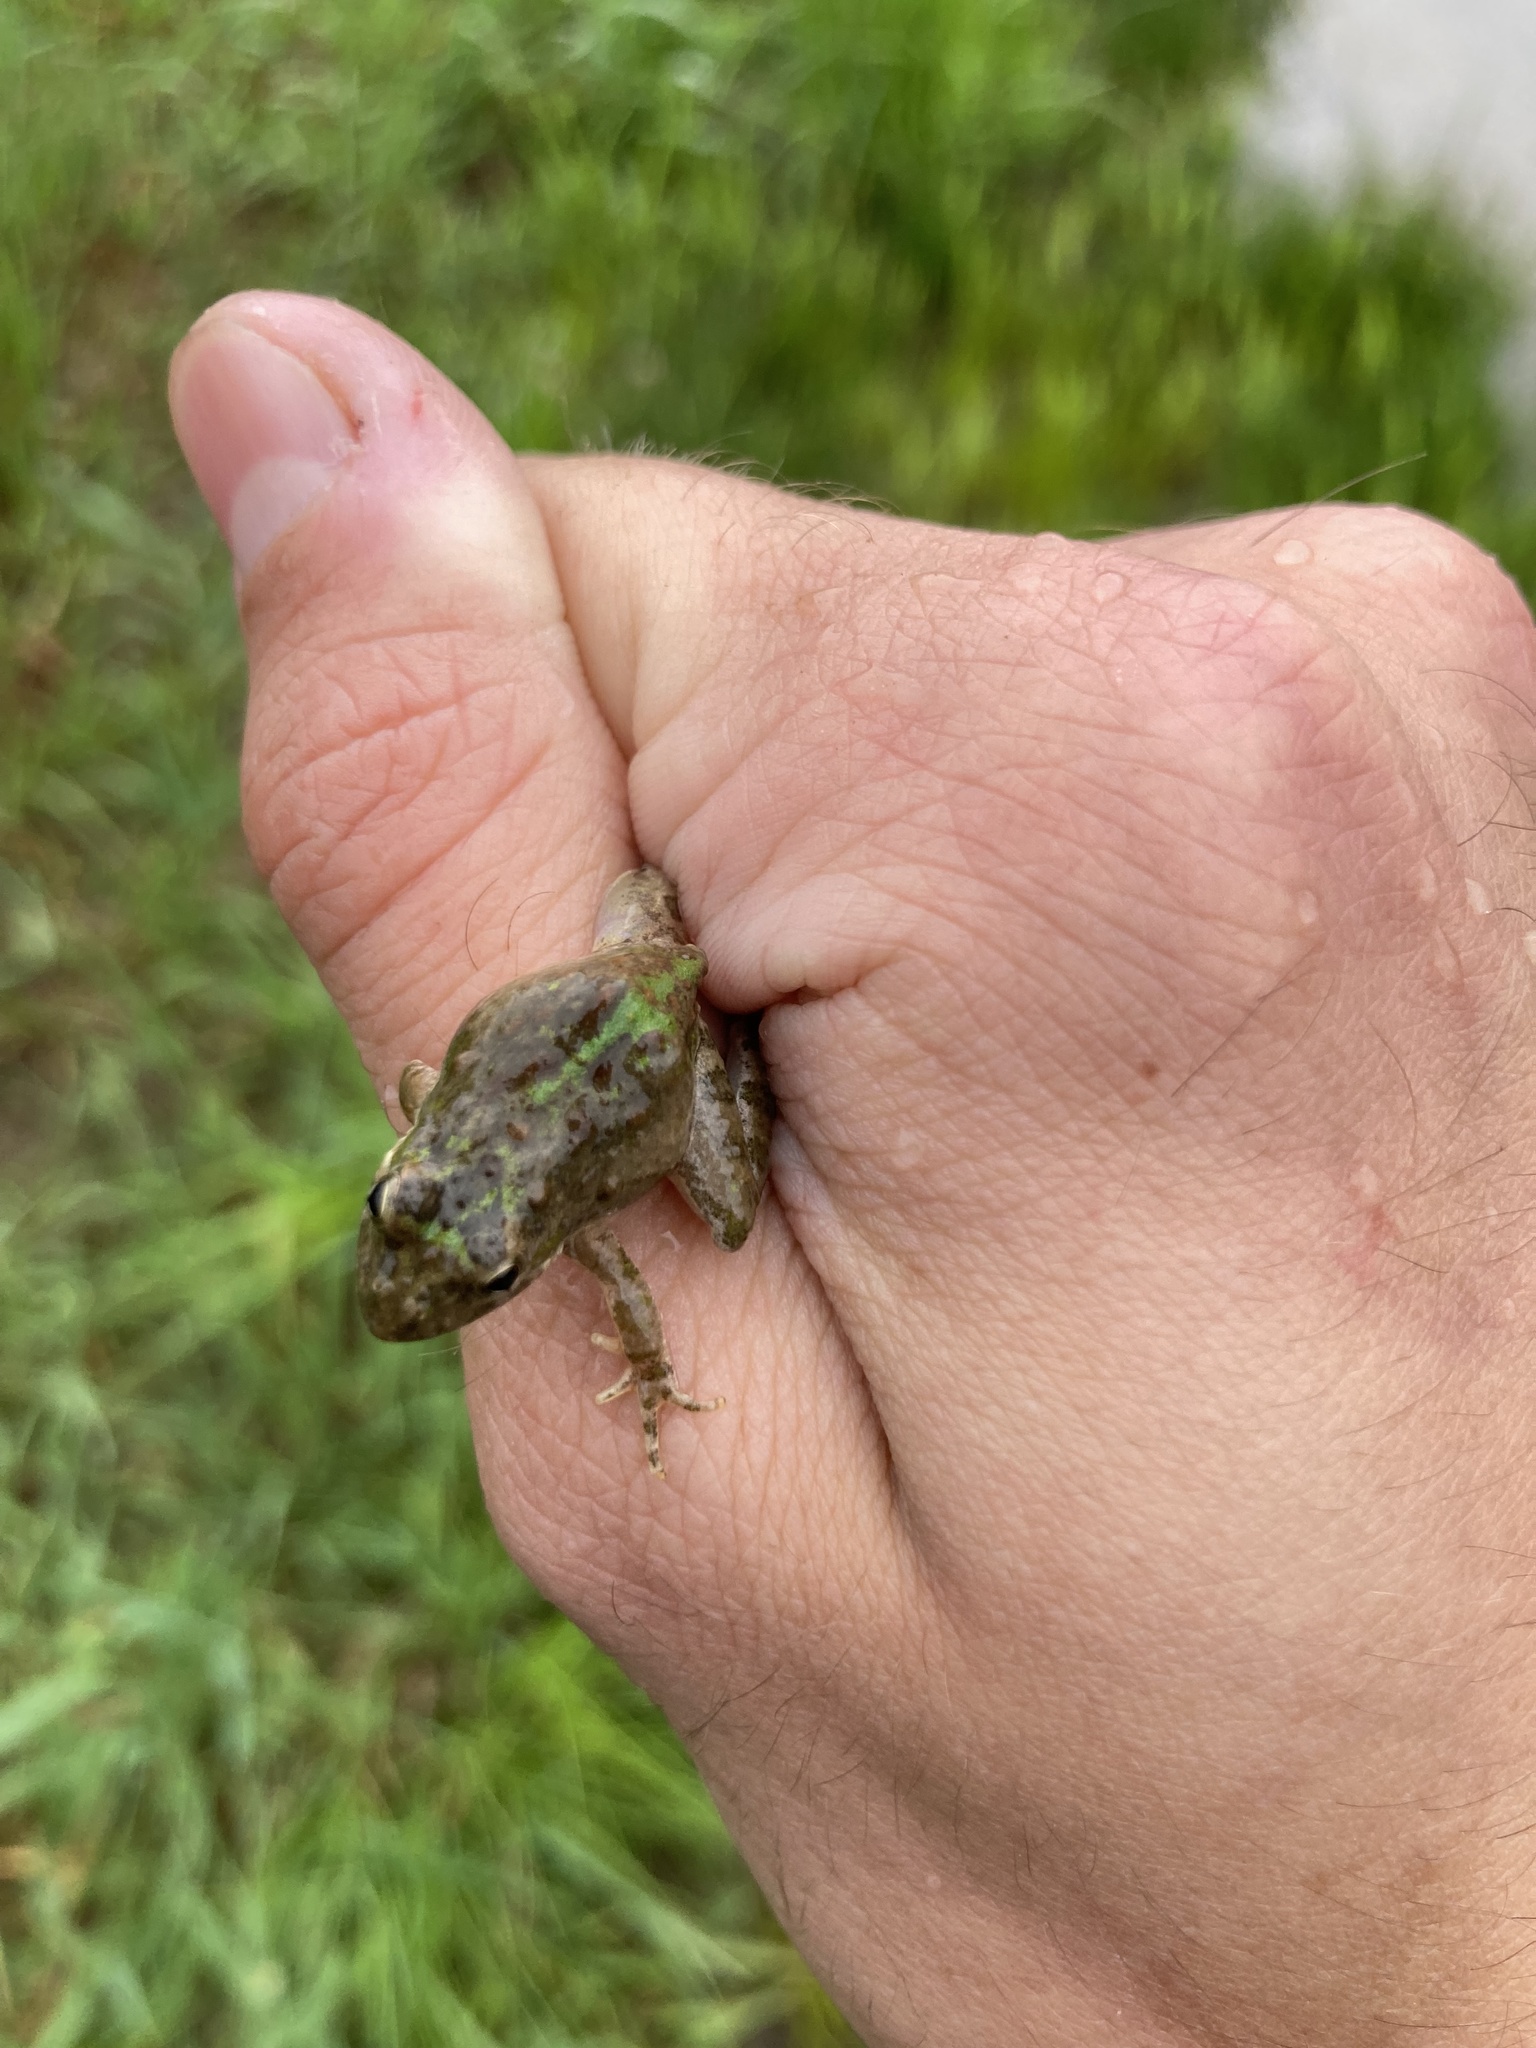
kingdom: Animalia
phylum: Chordata
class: Amphibia
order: Anura
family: Hylidae
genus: Acris
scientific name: Acris blanchardi
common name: Blanchard's cricket frog
